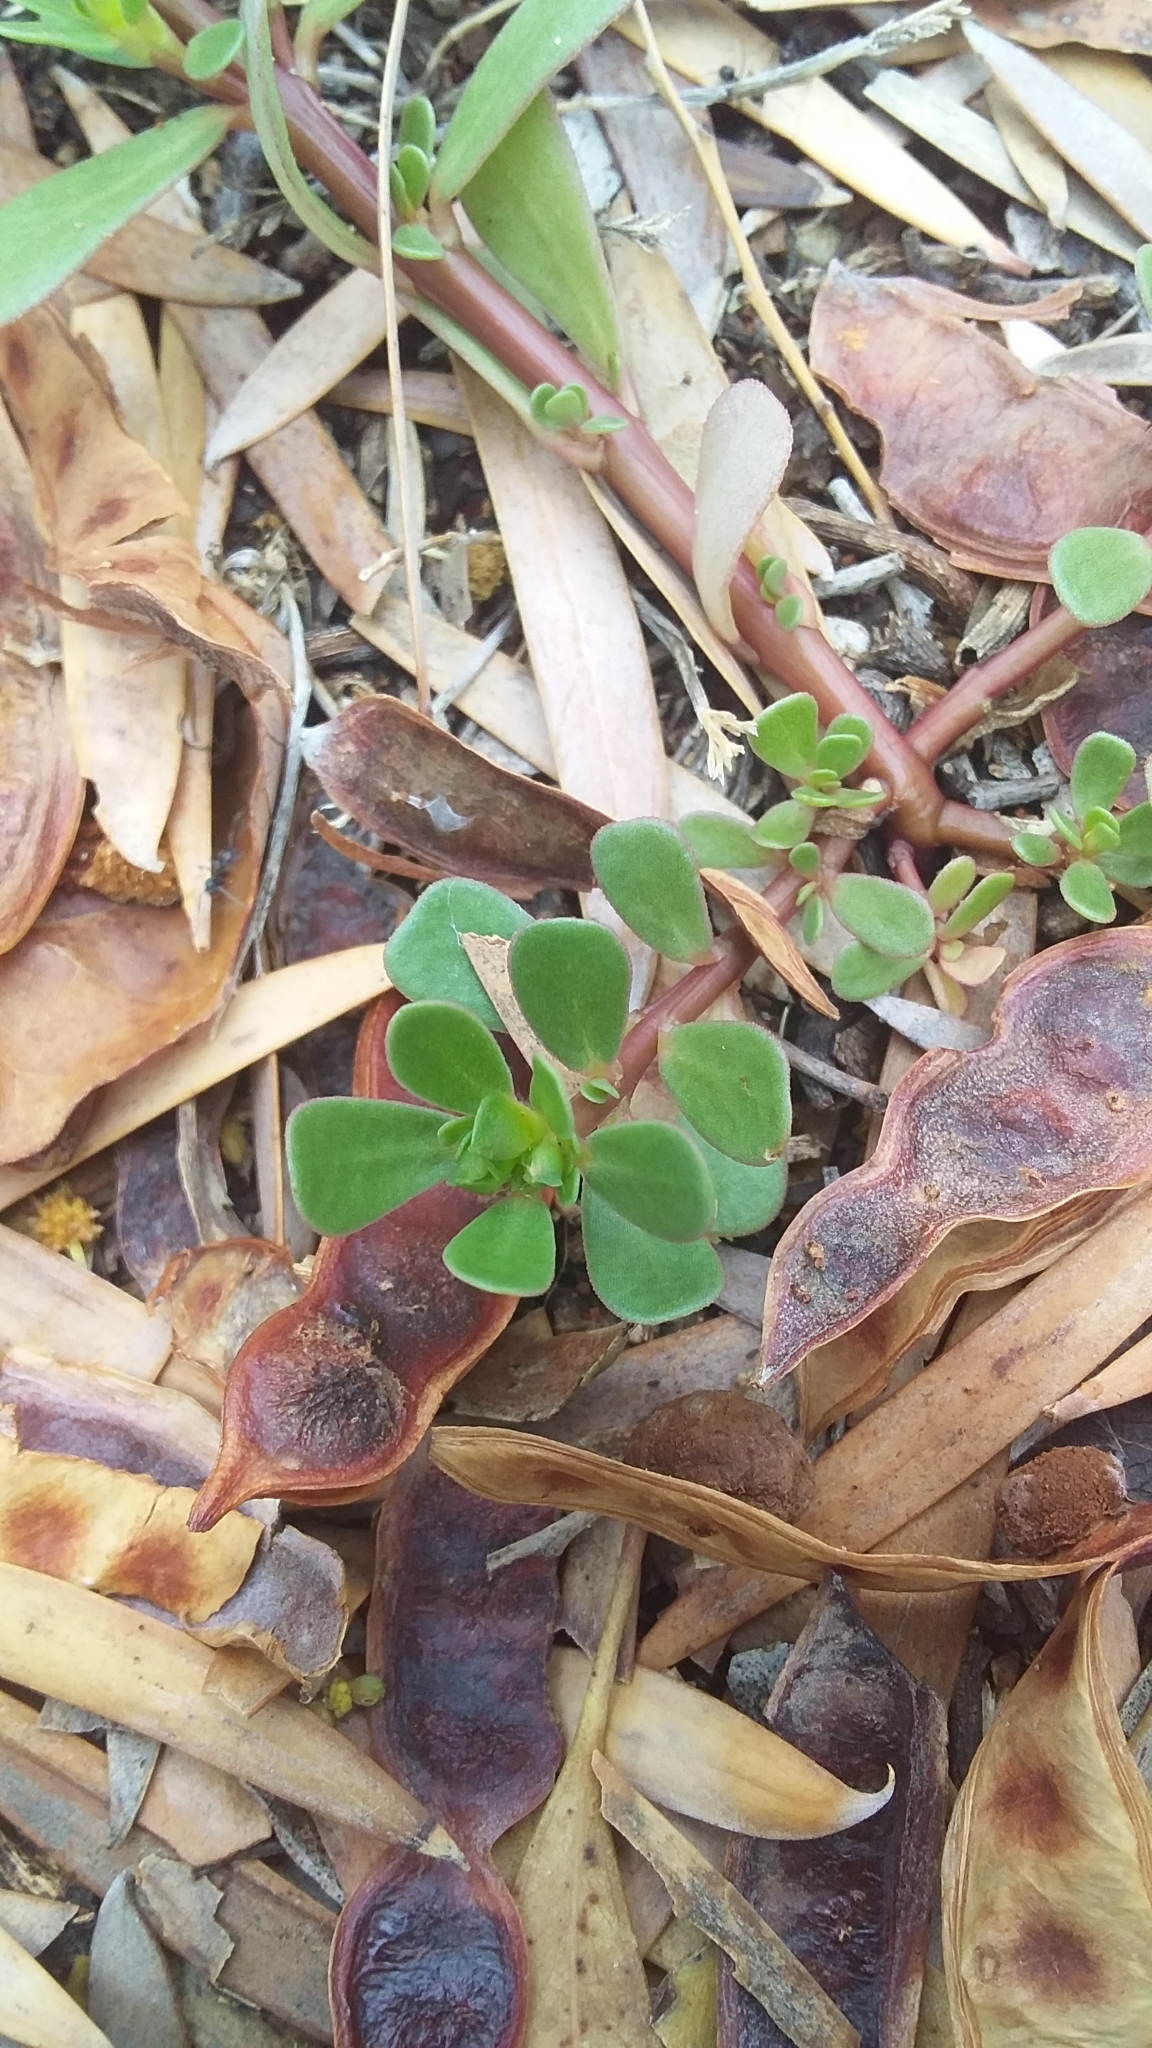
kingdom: Plantae
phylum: Tracheophyta
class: Magnoliopsida
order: Caryophyllales
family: Portulacaceae
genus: Portulaca
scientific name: Portulaca oleracea
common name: Common purslane
